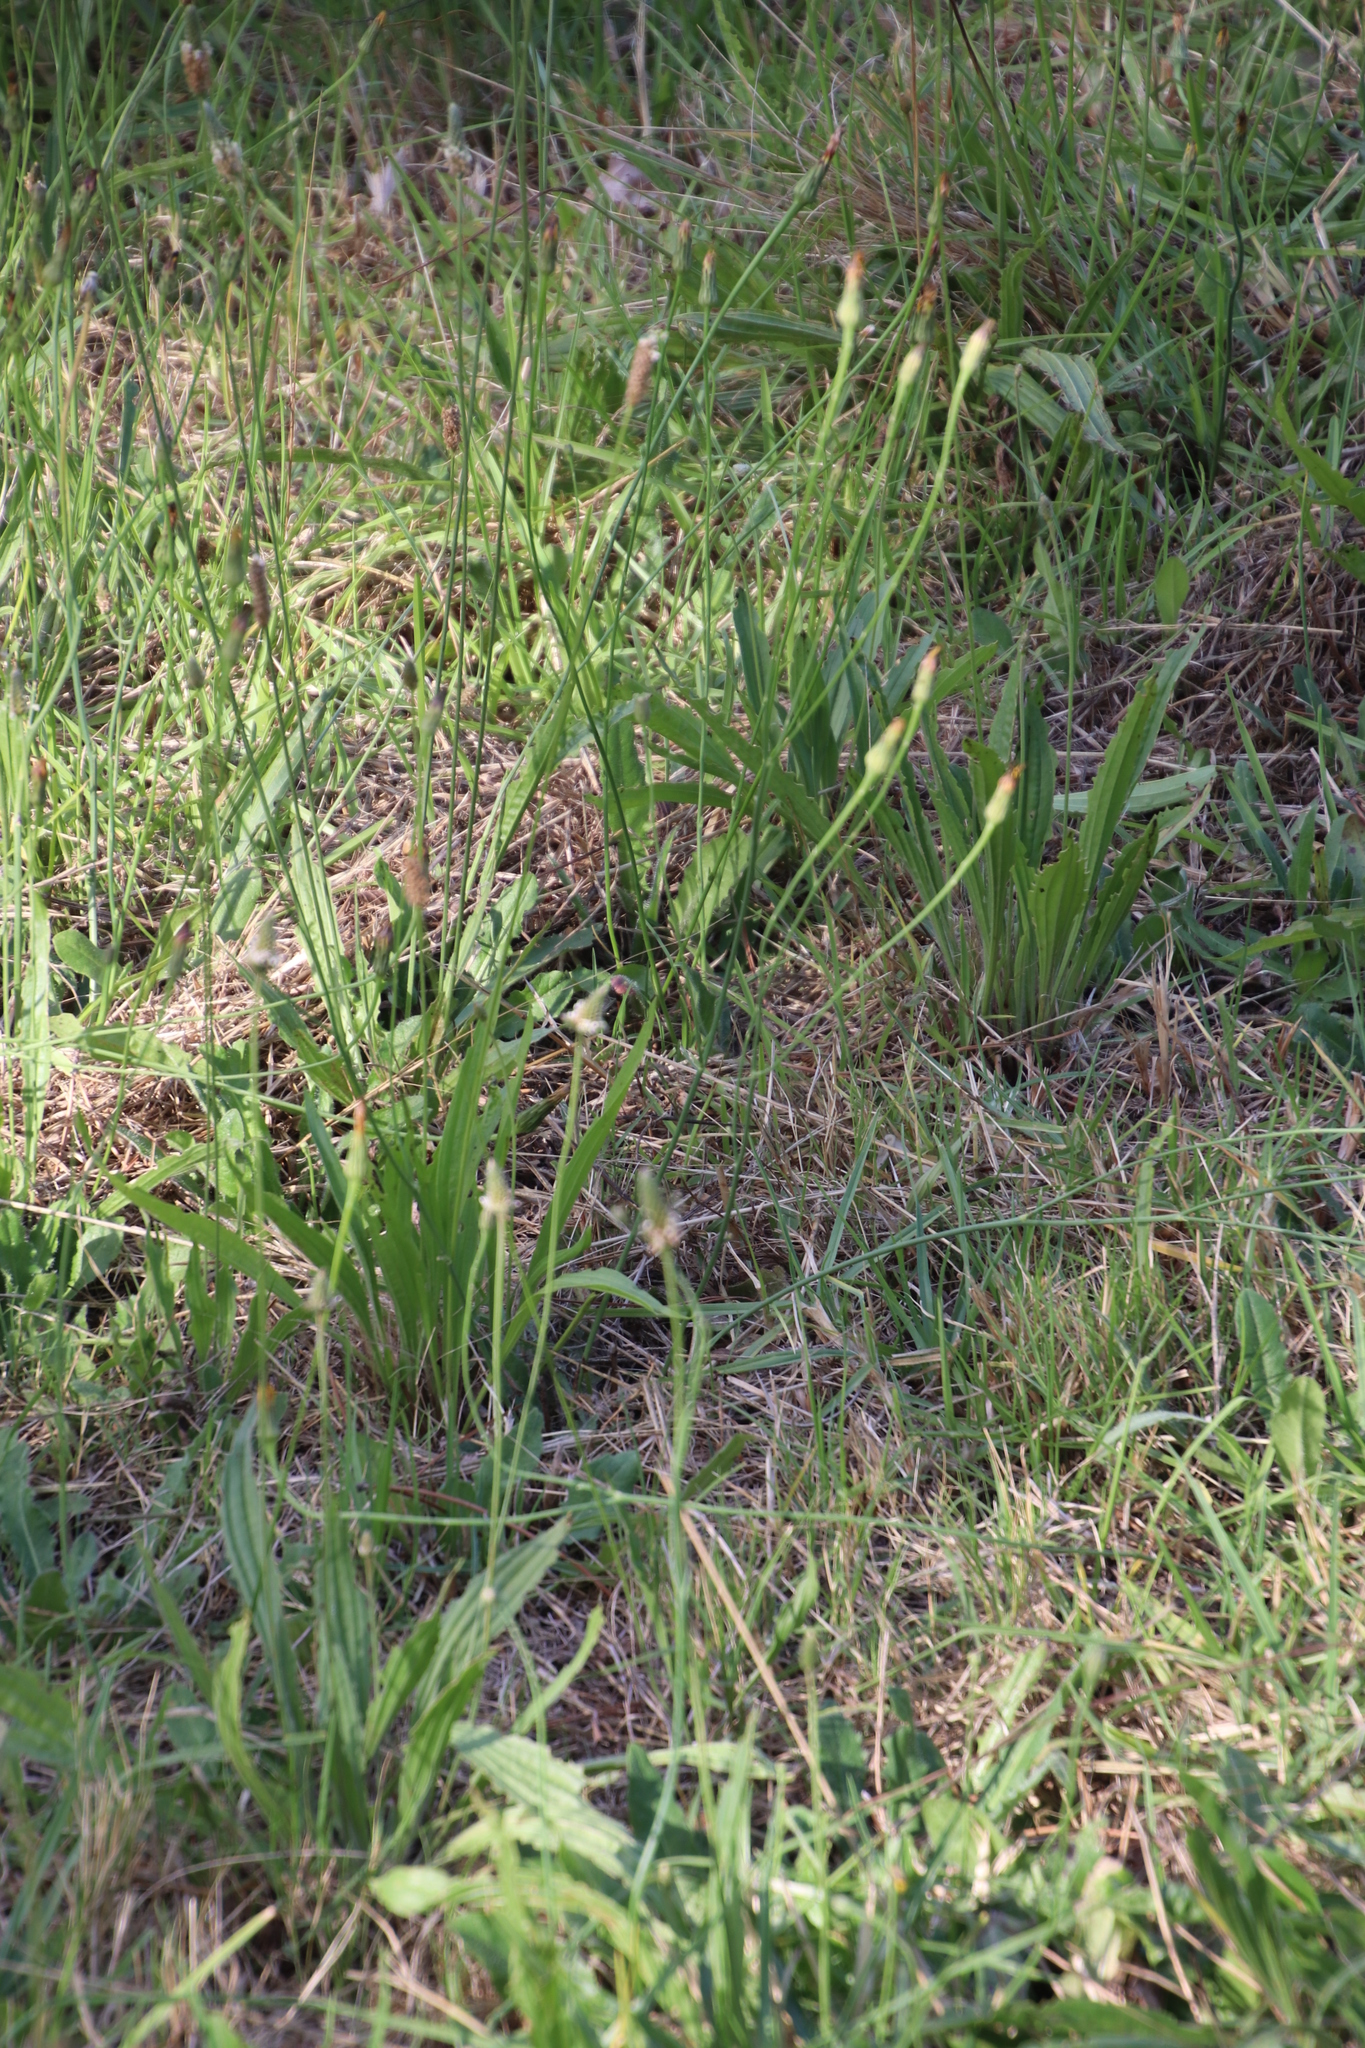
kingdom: Plantae
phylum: Tracheophyta
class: Magnoliopsida
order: Asterales
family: Asteraceae
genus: Hypochaeris
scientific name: Hypochaeris radicata
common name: Flatweed
